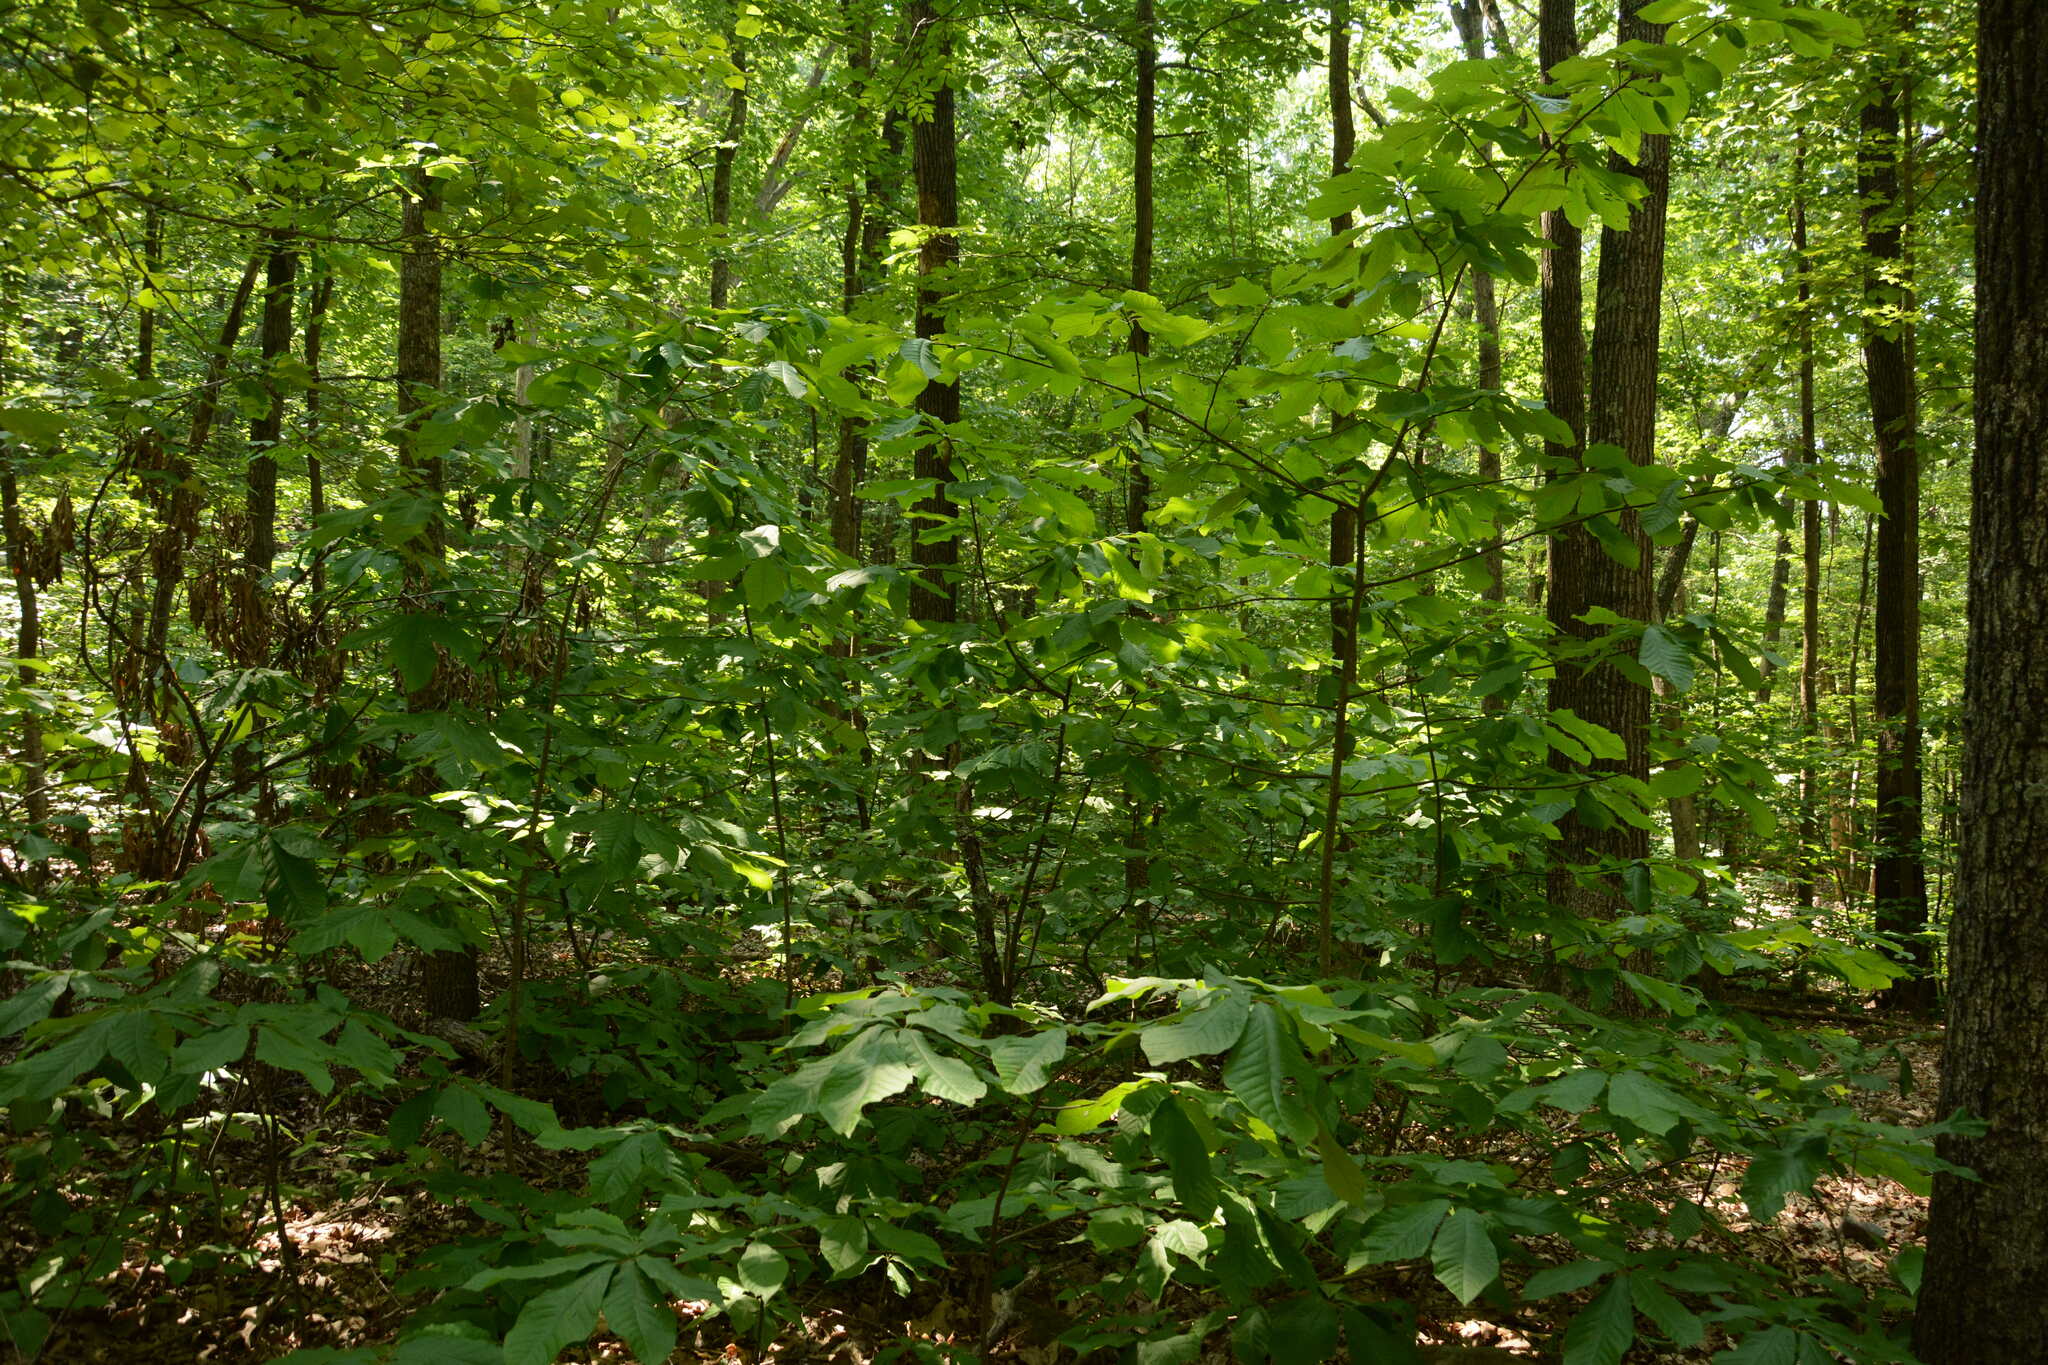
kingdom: Plantae
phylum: Tracheophyta
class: Magnoliopsida
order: Magnoliales
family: Annonaceae
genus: Asimina
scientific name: Asimina triloba
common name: Dog-banana
